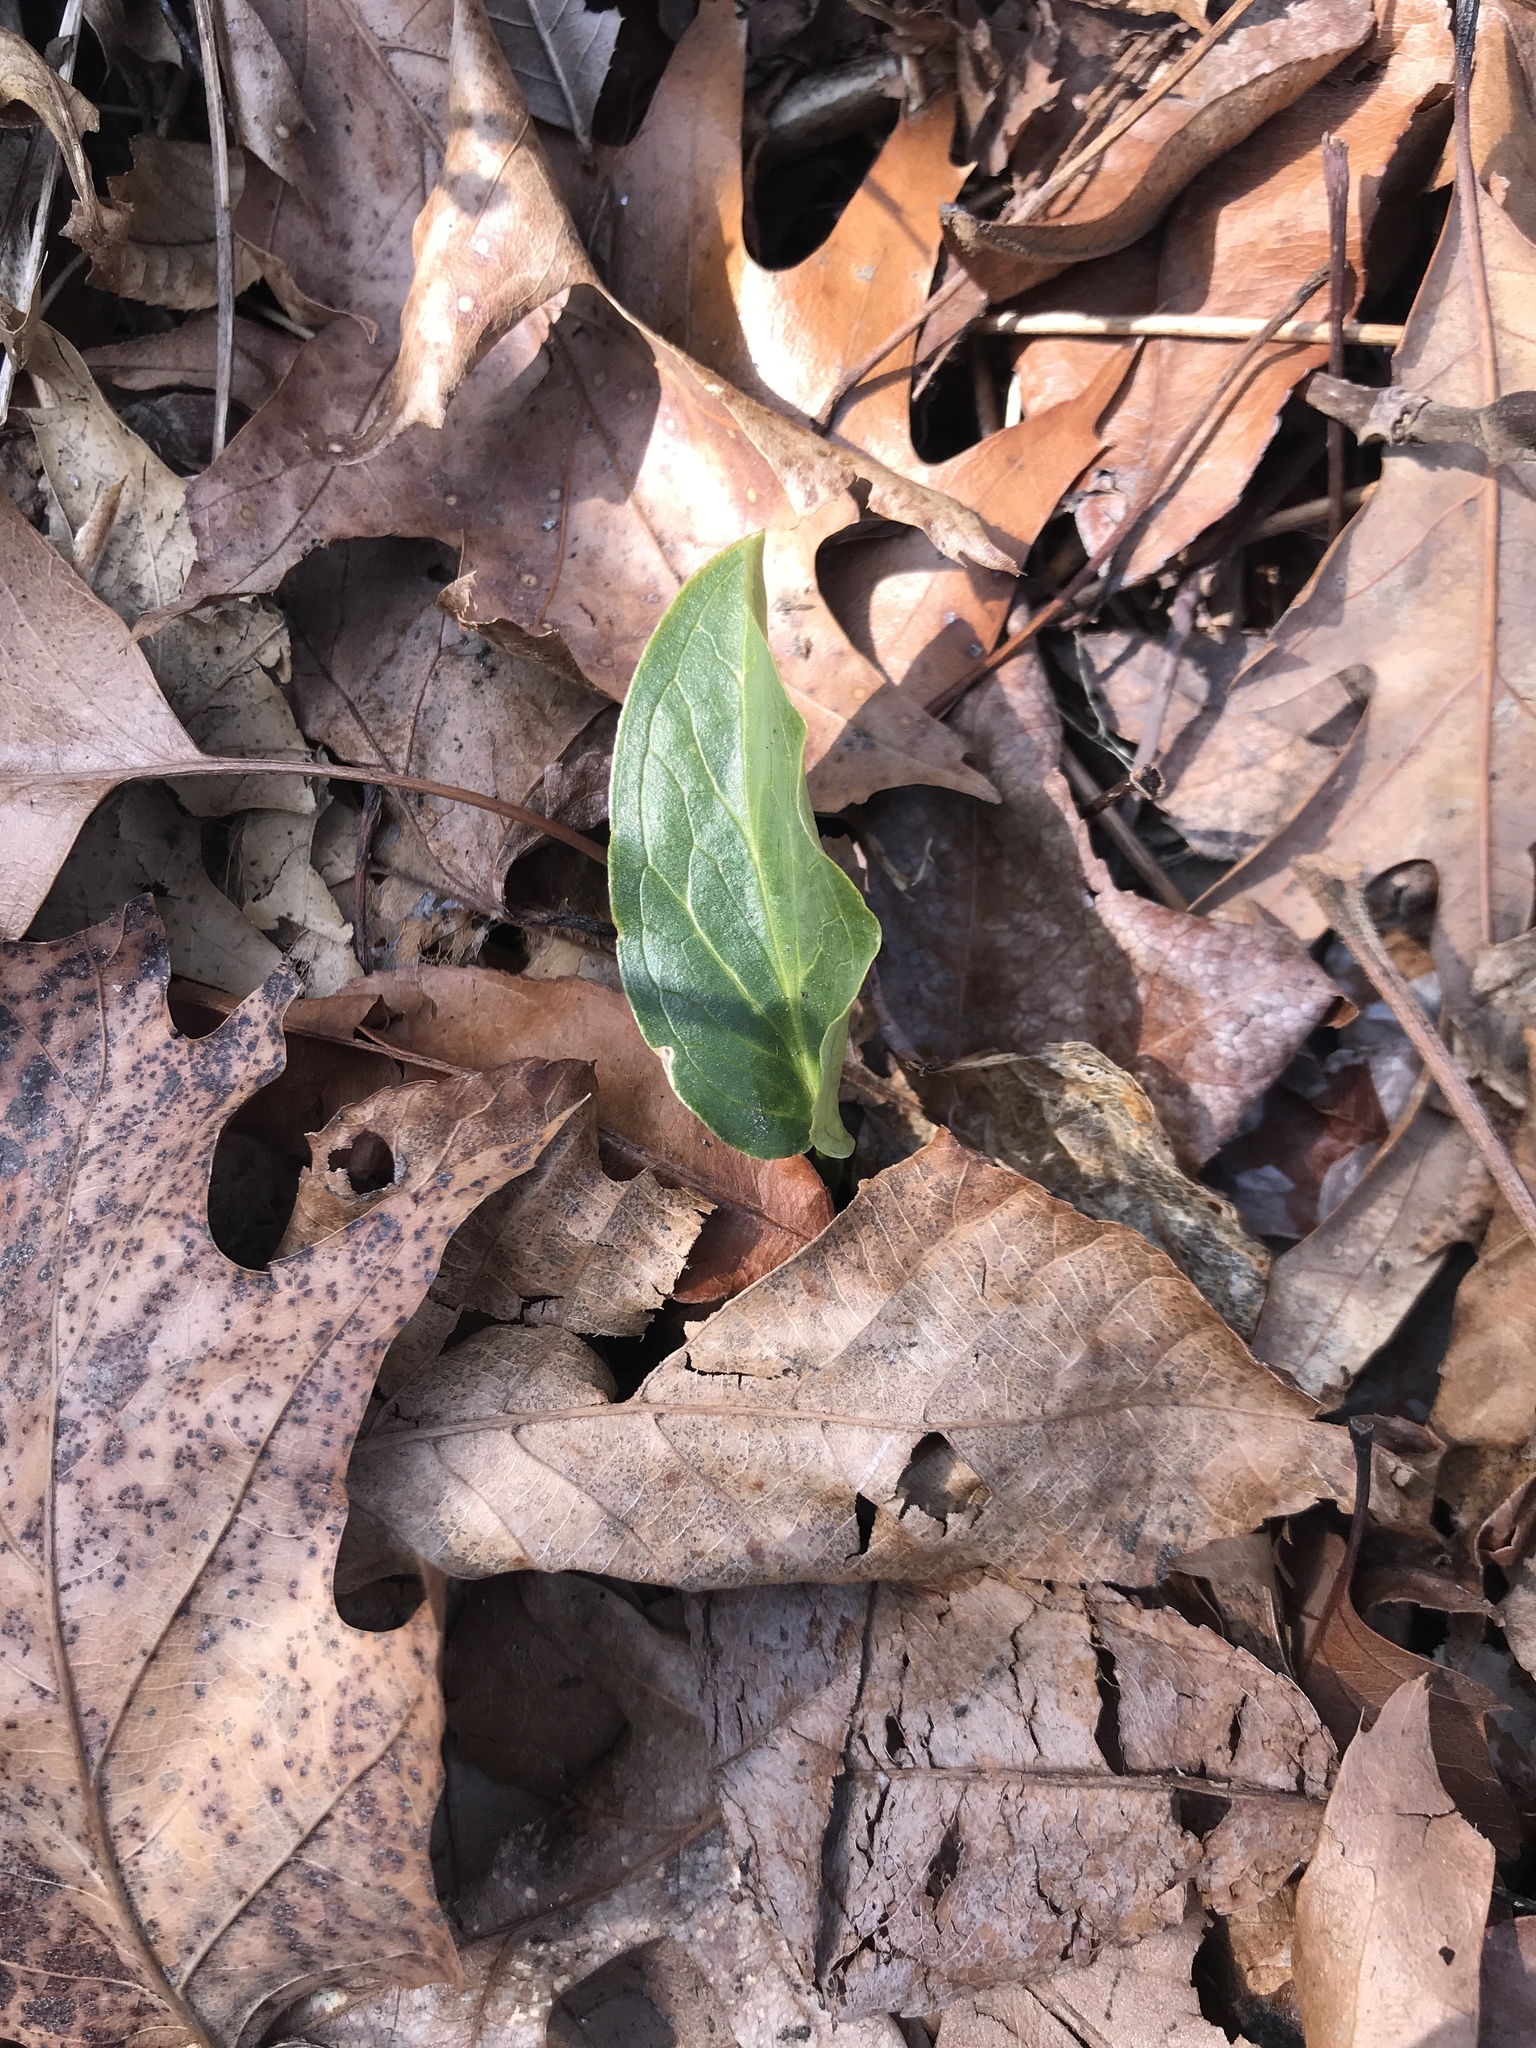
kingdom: Plantae
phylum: Tracheophyta
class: Liliopsida
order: Alismatales
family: Araceae
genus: Arum
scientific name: Arum italicum
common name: Italian lords-and-ladies
